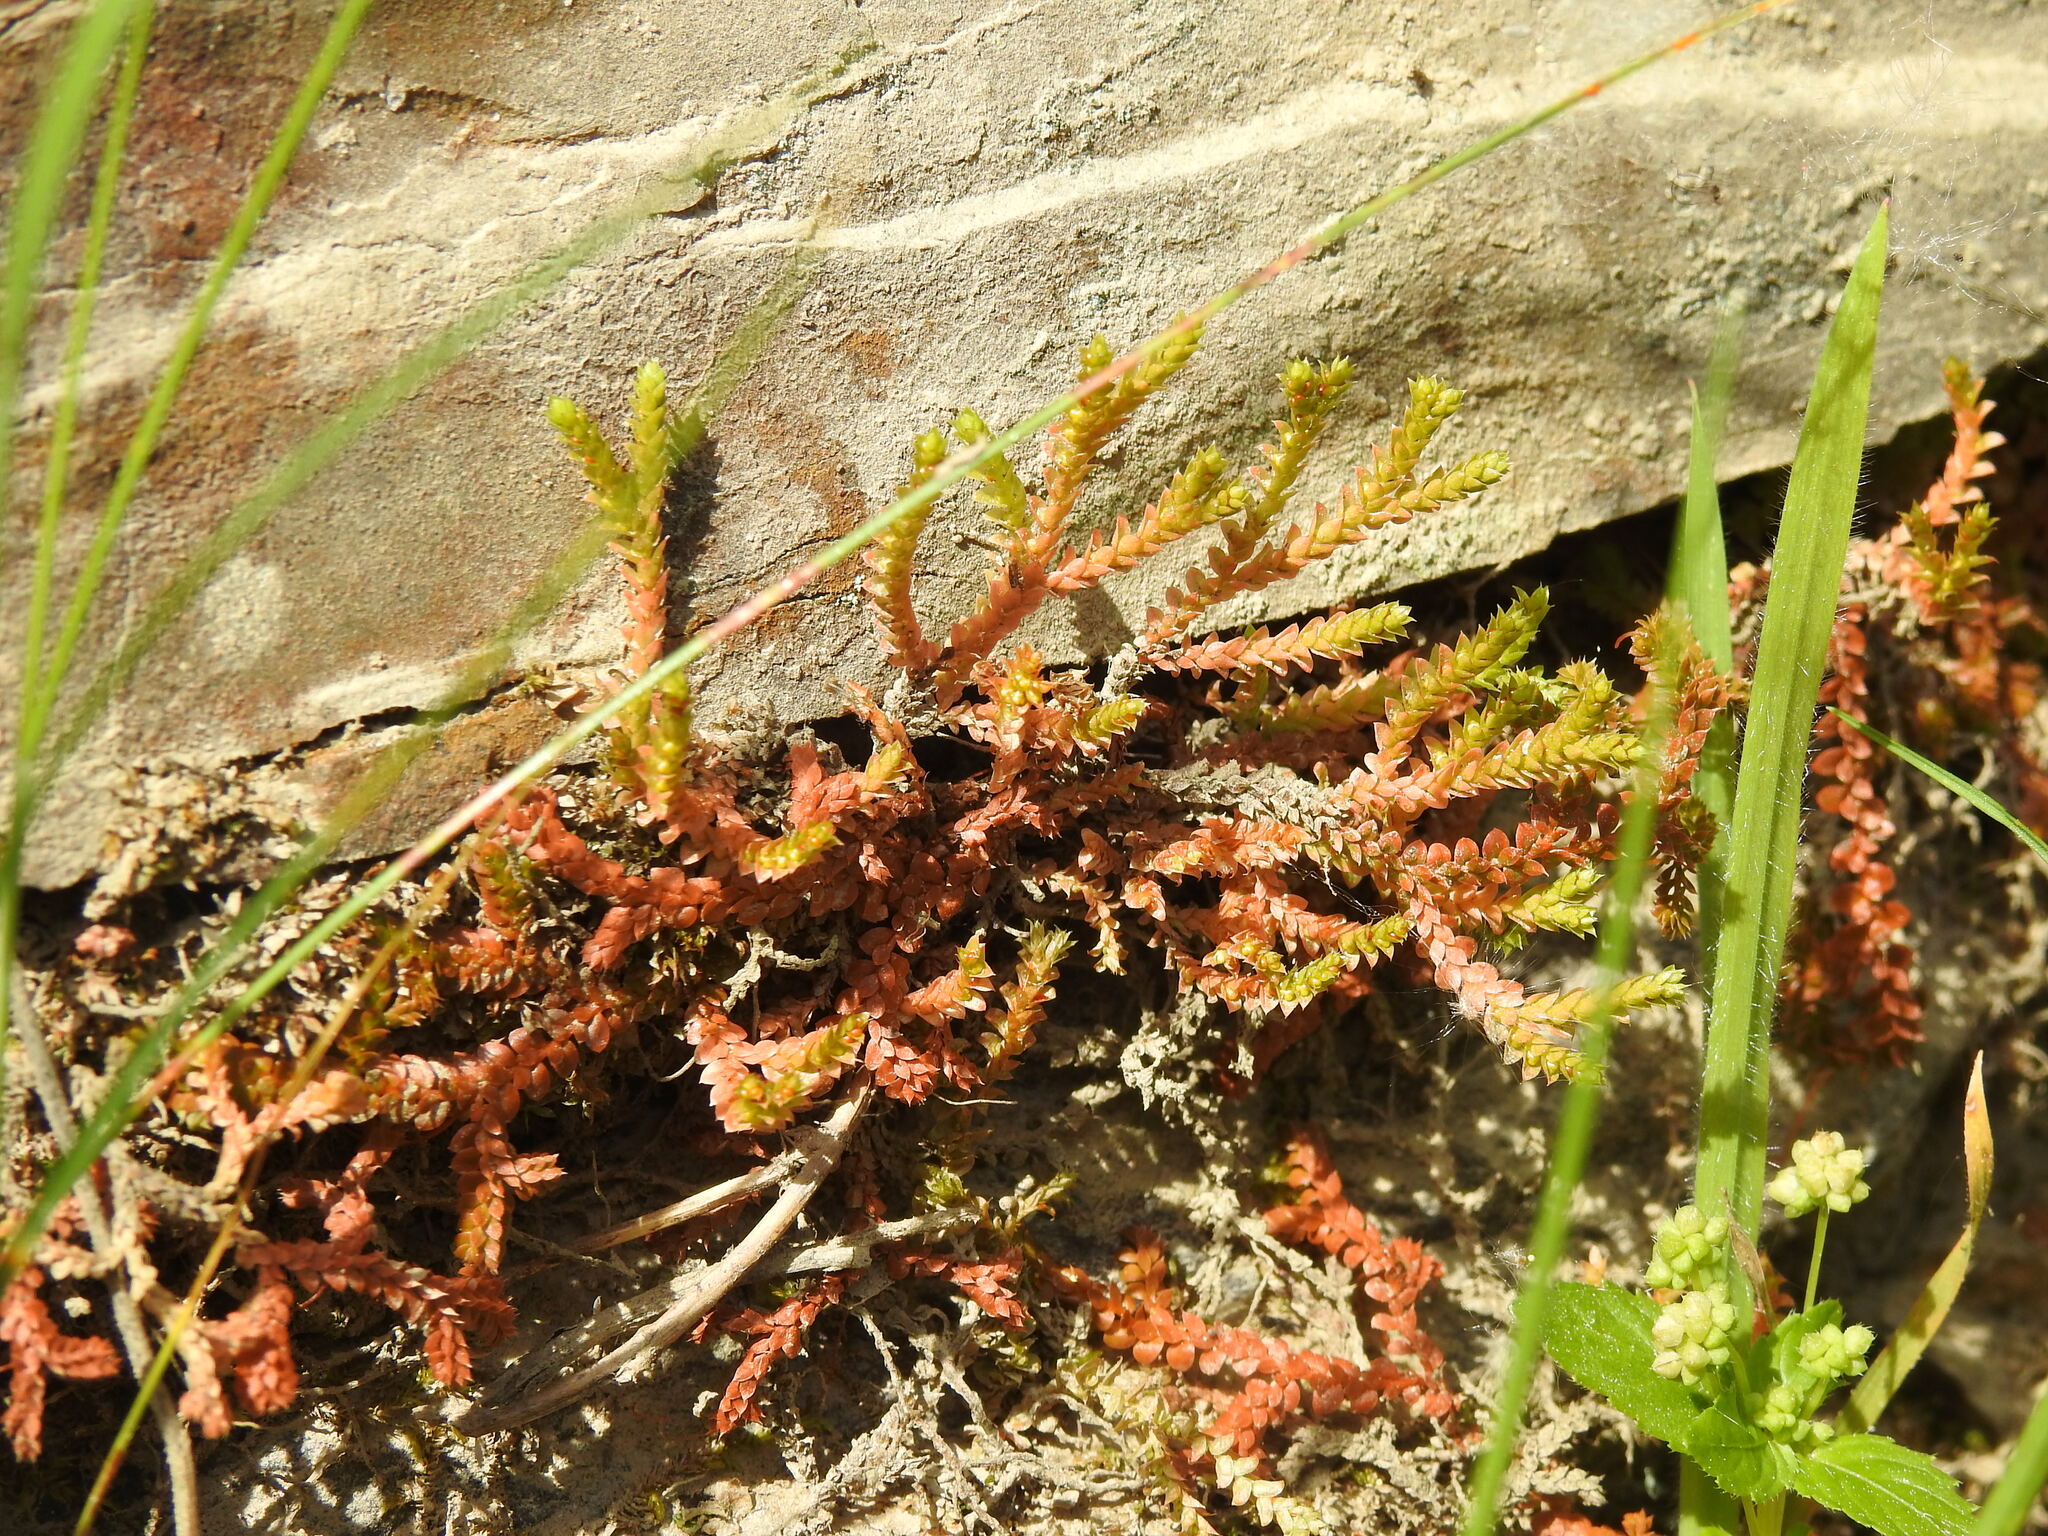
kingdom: Plantae
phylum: Tracheophyta
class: Lycopodiopsida
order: Selaginellales
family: Selaginellaceae
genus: Selaginella
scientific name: Selaginella denticulata
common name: Toothed-leaved clubmoss
